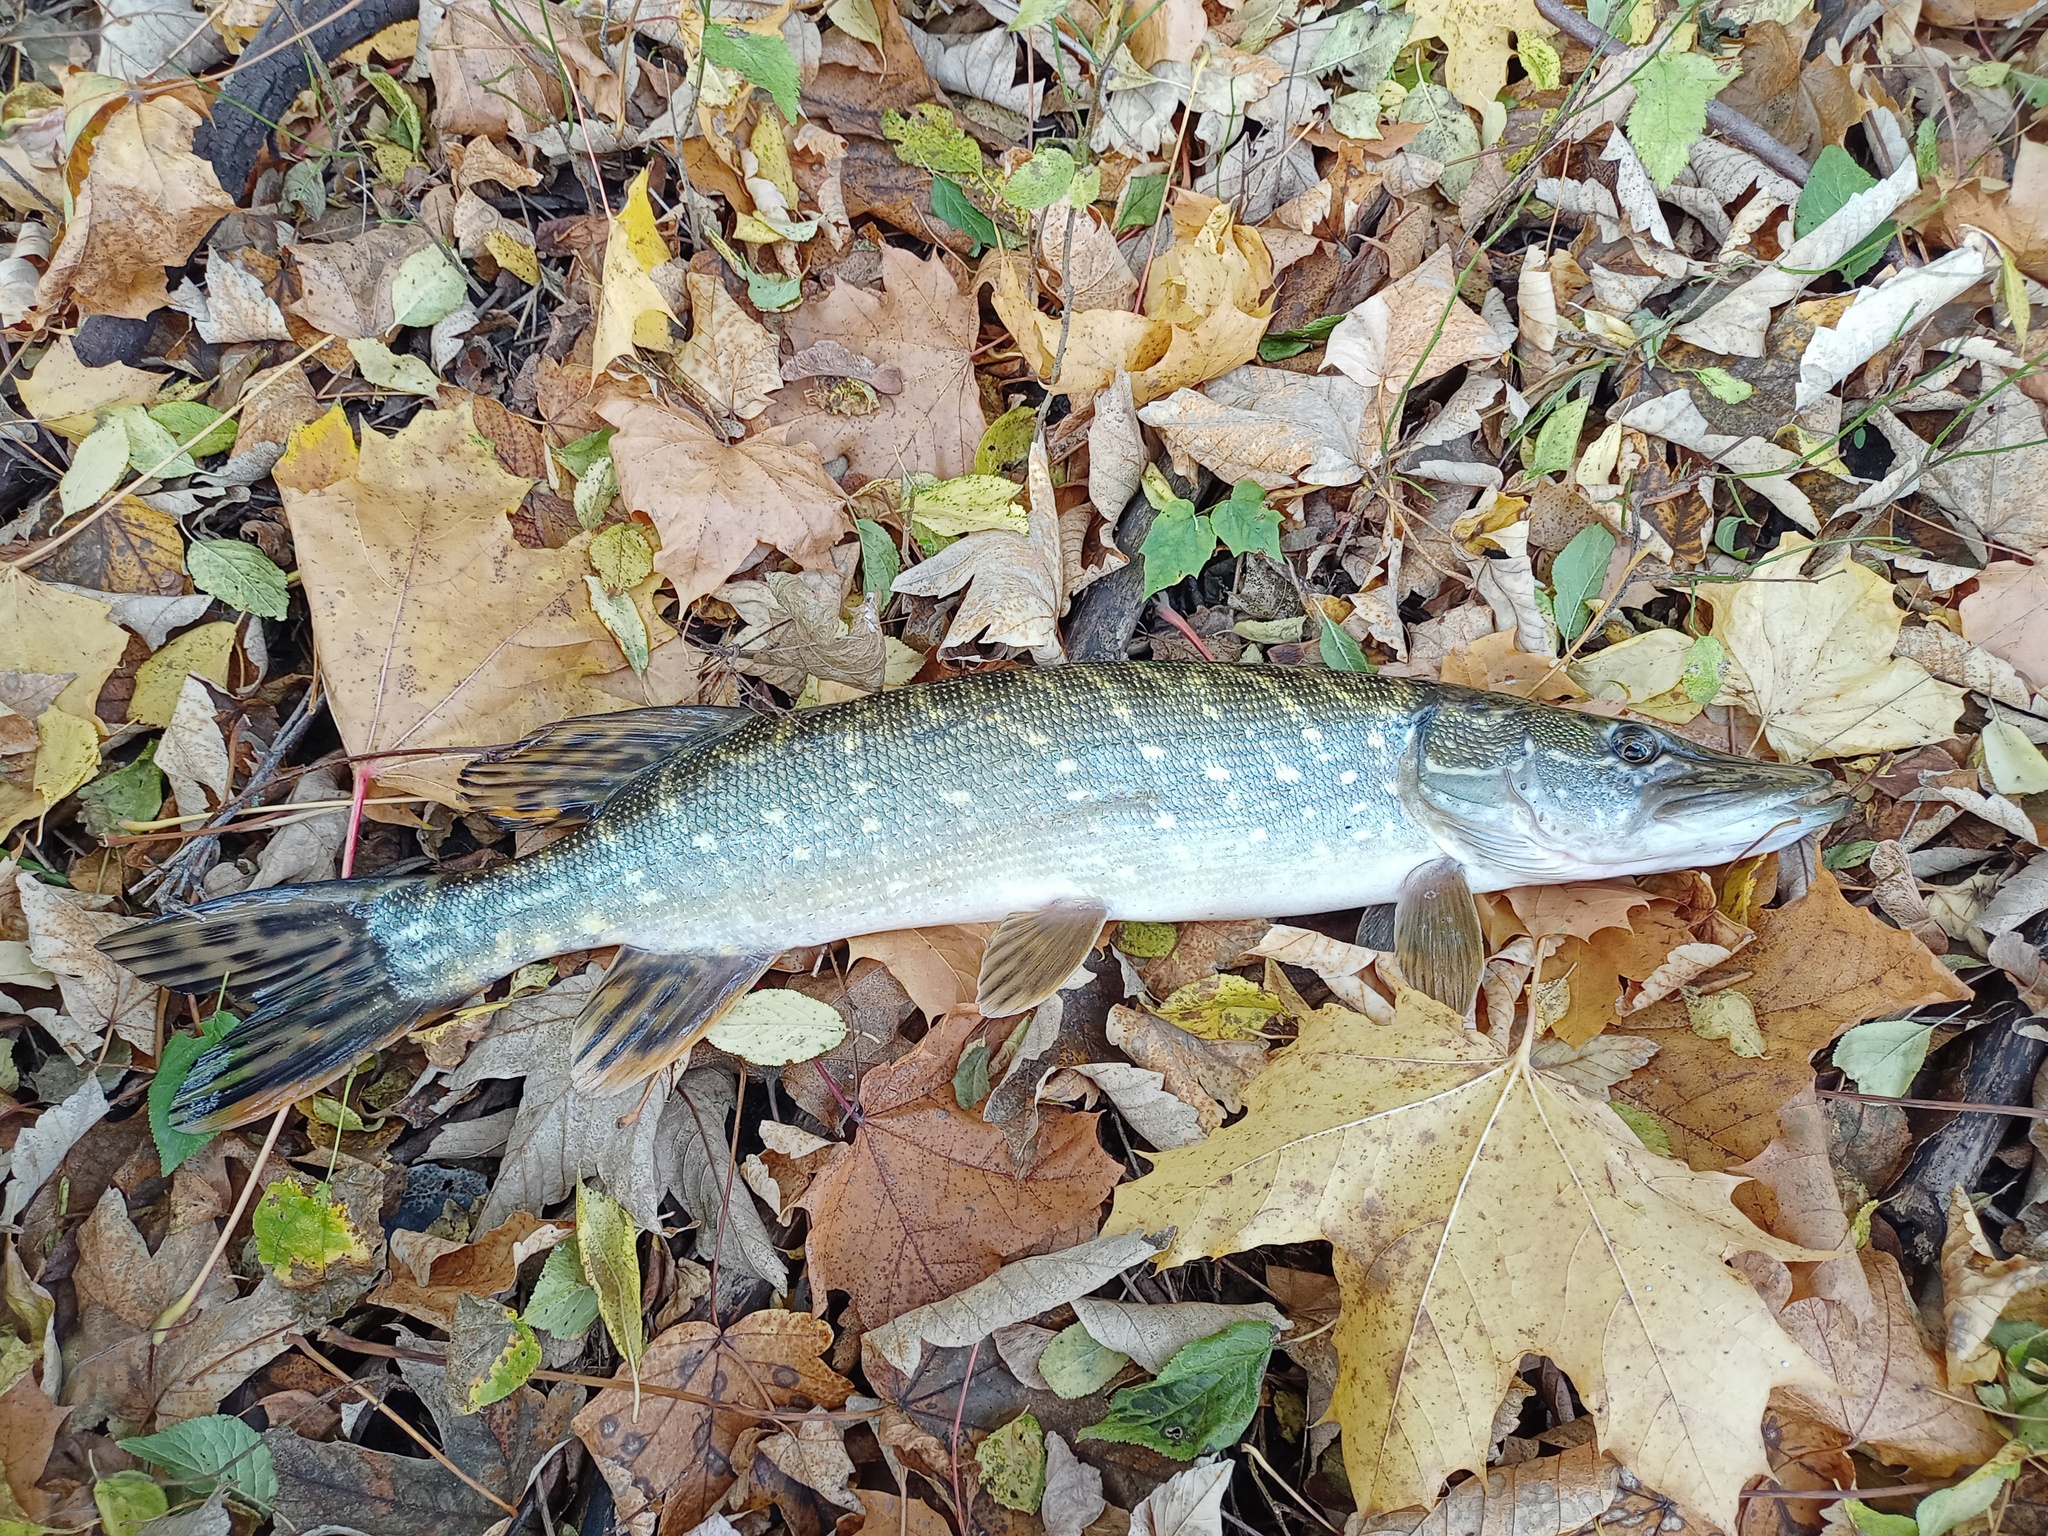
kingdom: Animalia
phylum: Chordata
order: Esociformes
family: Esocidae
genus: Esox
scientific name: Esox lucius
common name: Northern pike
